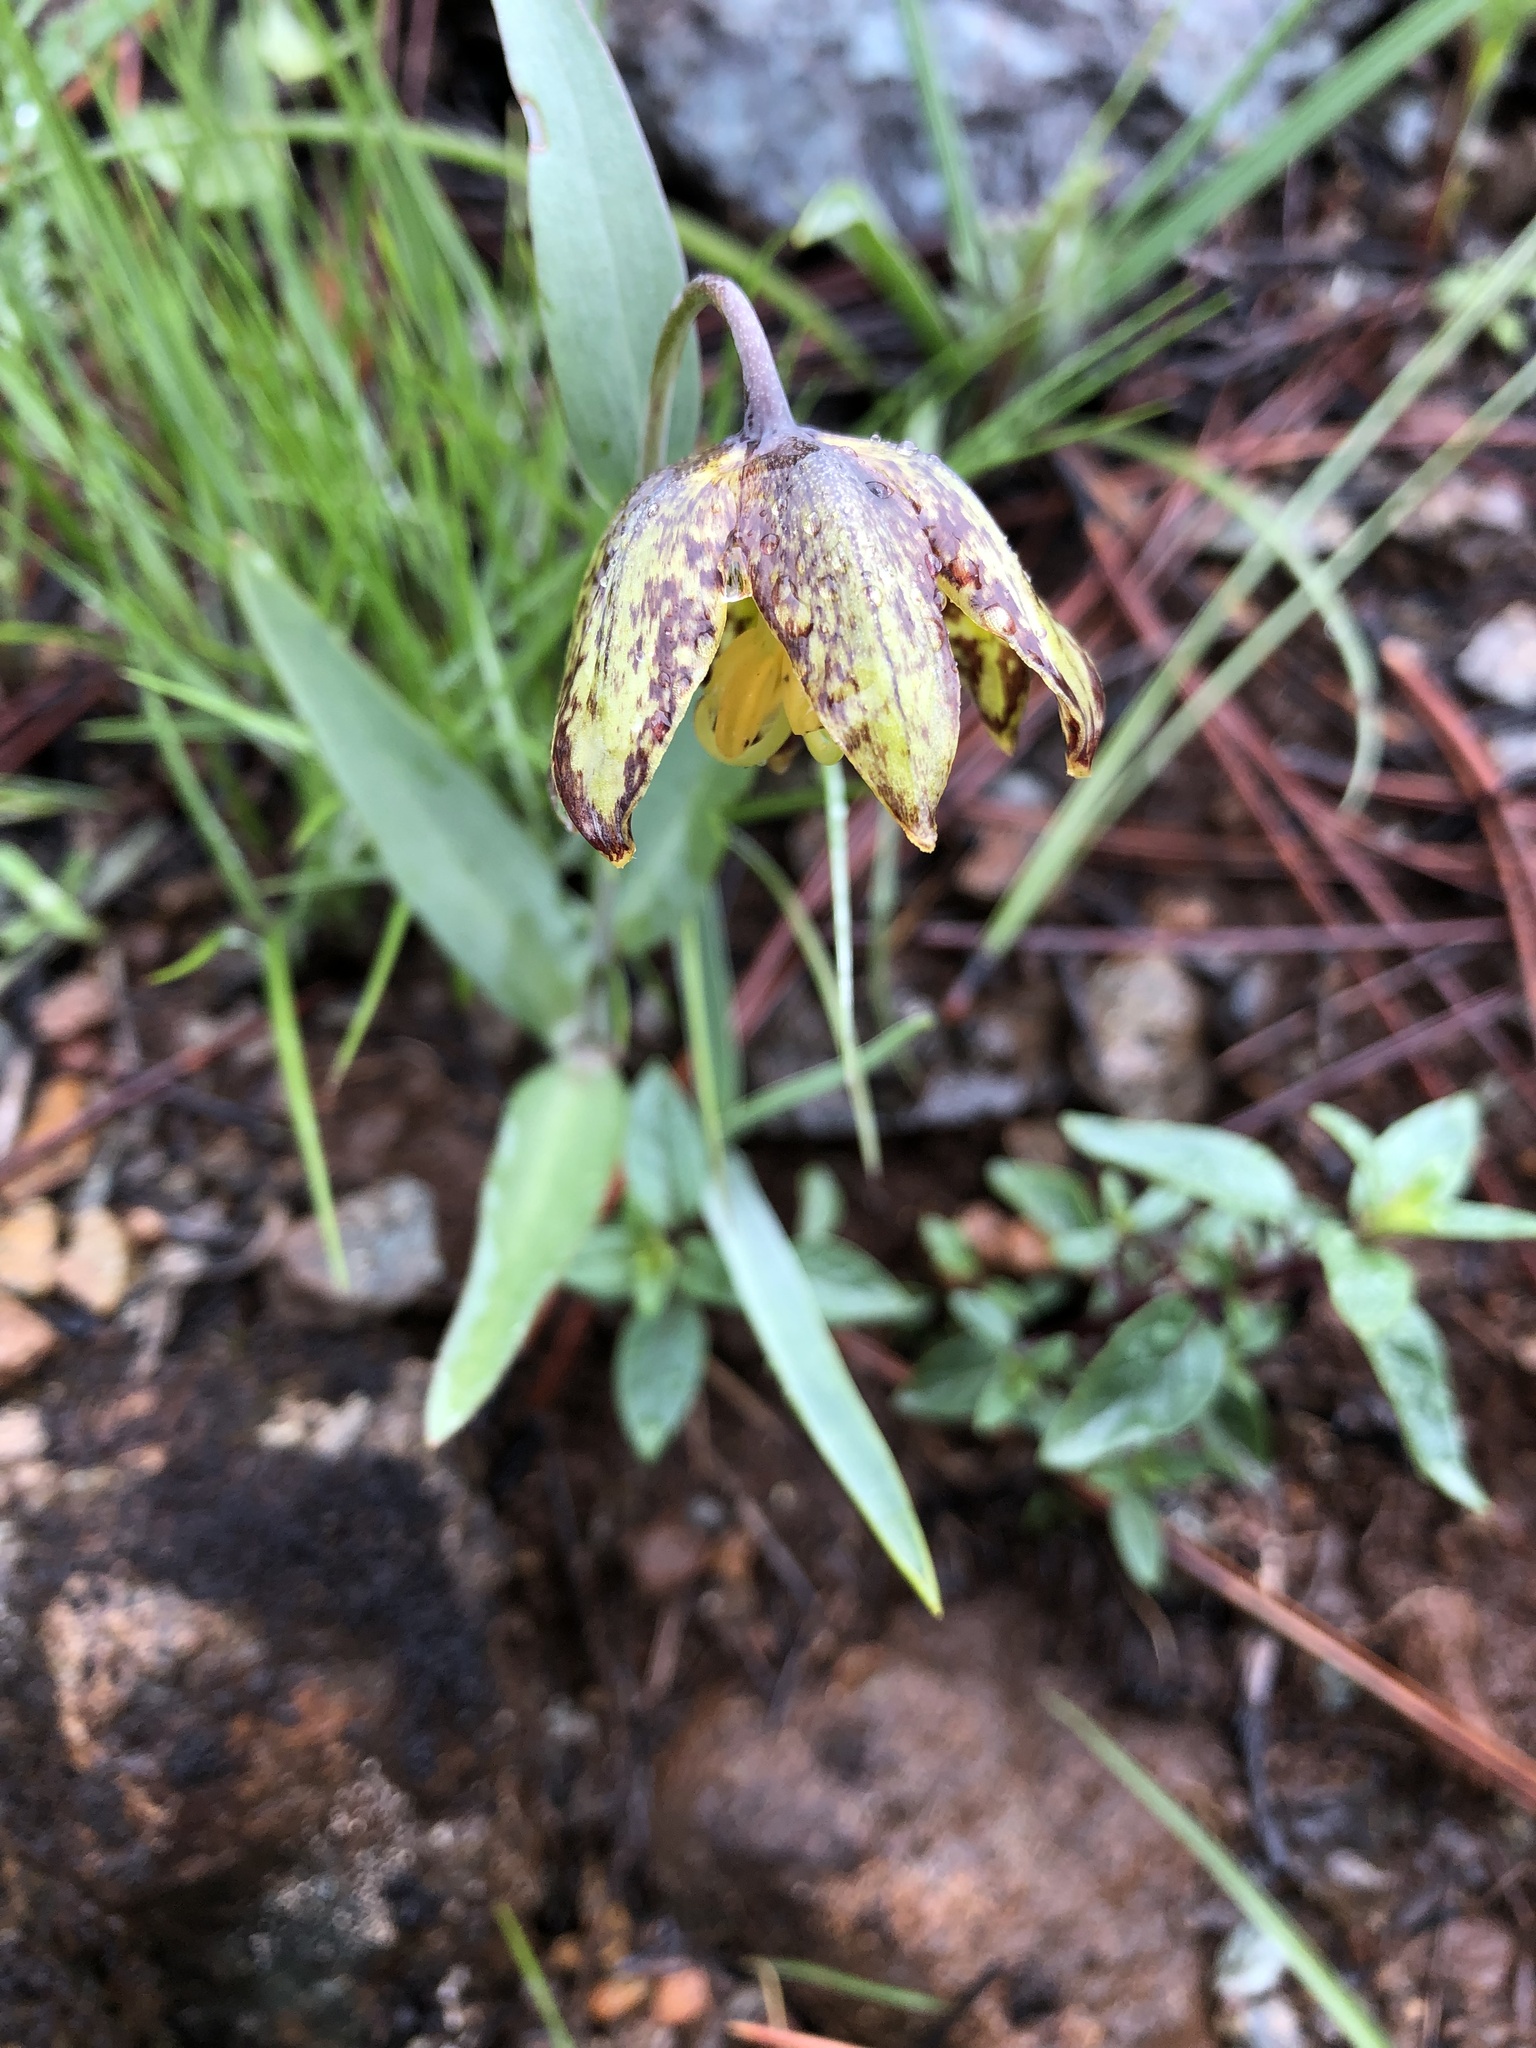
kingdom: Plantae
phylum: Tracheophyta
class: Liliopsida
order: Liliales
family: Liliaceae
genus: Fritillaria
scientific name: Fritillaria affinis
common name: Ojai fritillary
